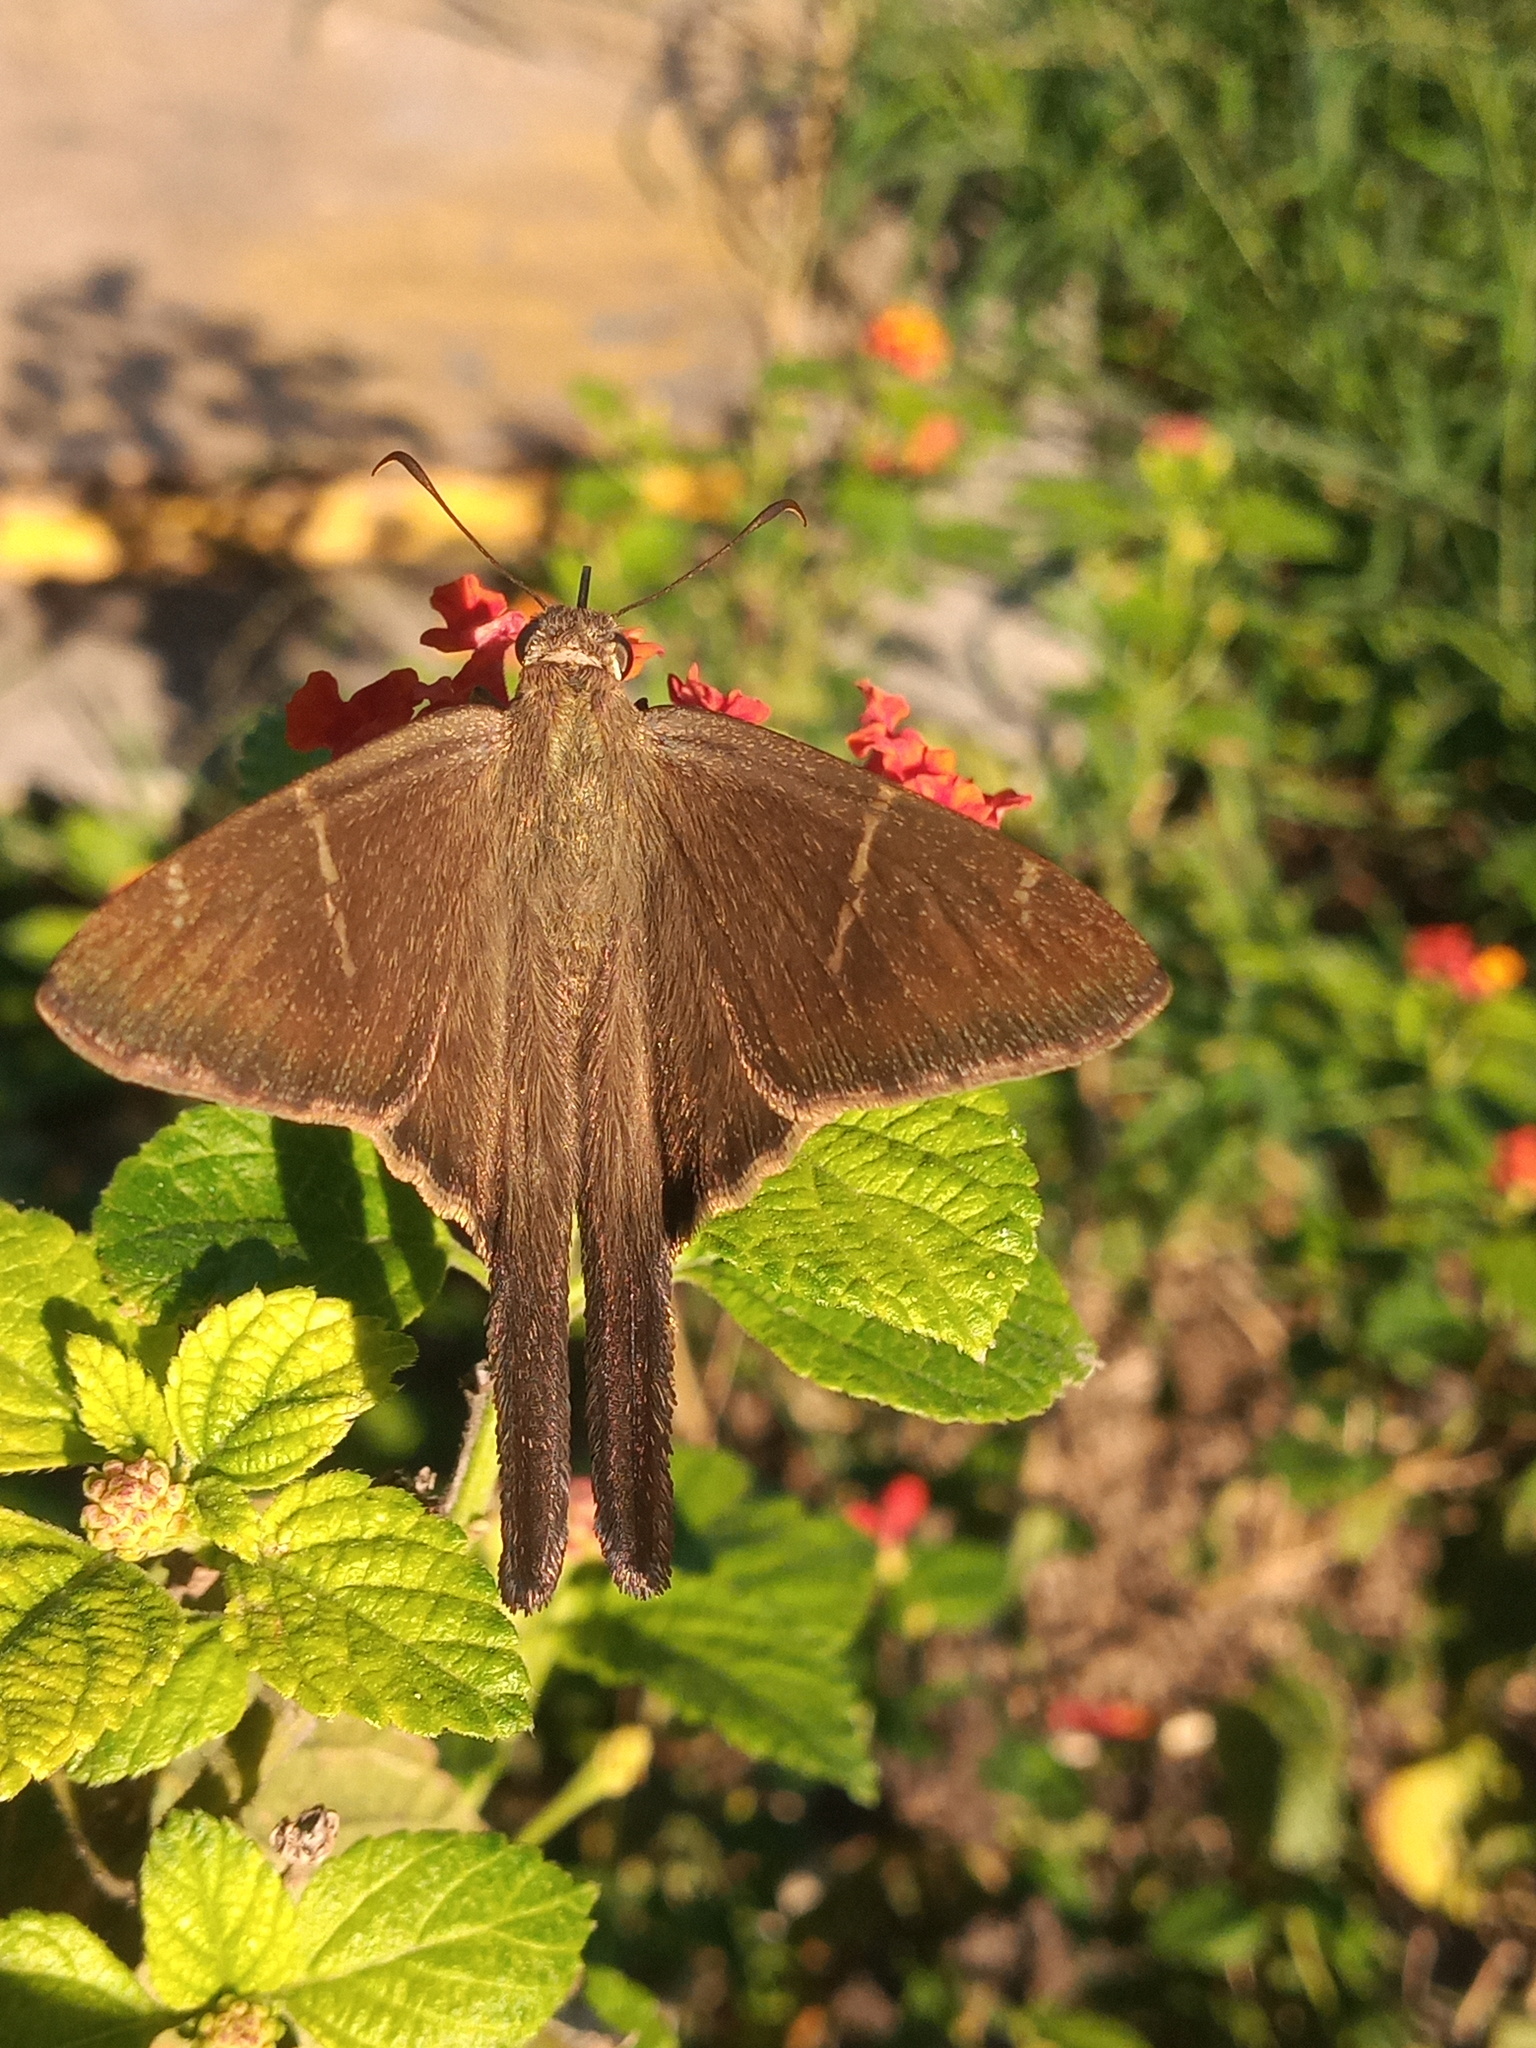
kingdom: Animalia
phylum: Arthropoda
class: Insecta
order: Lepidoptera
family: Hesperiidae
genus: Urbanus
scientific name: Urbanus teleus
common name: Teleus longtail
